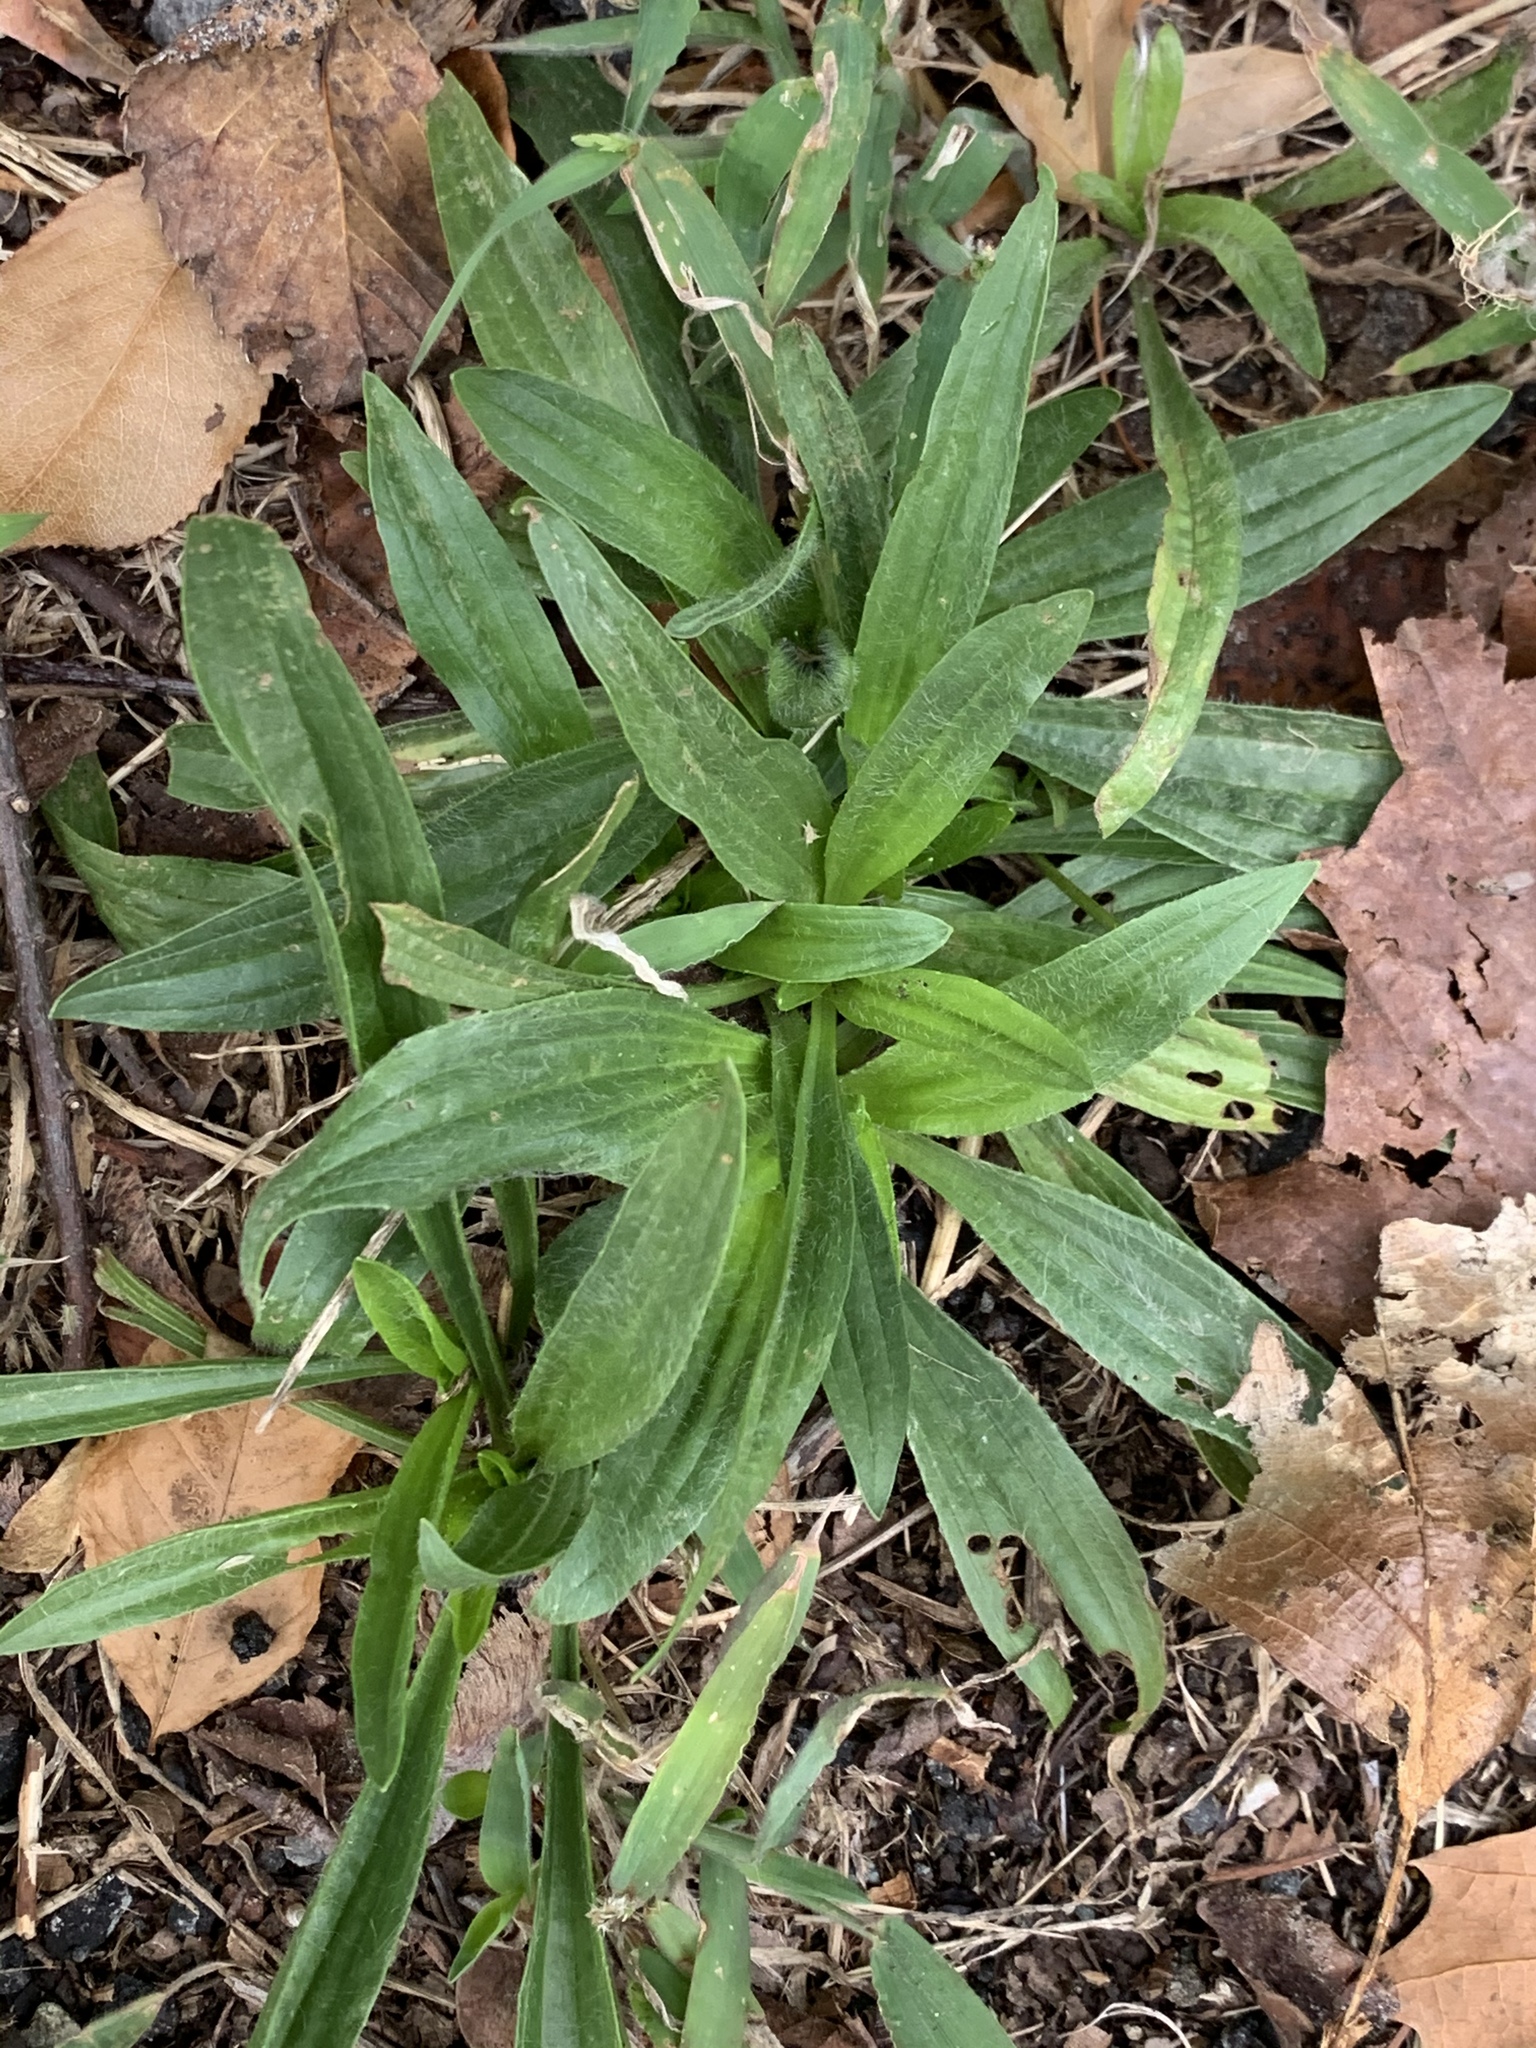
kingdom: Plantae
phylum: Tracheophyta
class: Magnoliopsida
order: Lamiales
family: Plantaginaceae
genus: Plantago
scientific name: Plantago lanceolata
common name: Ribwort plantain
